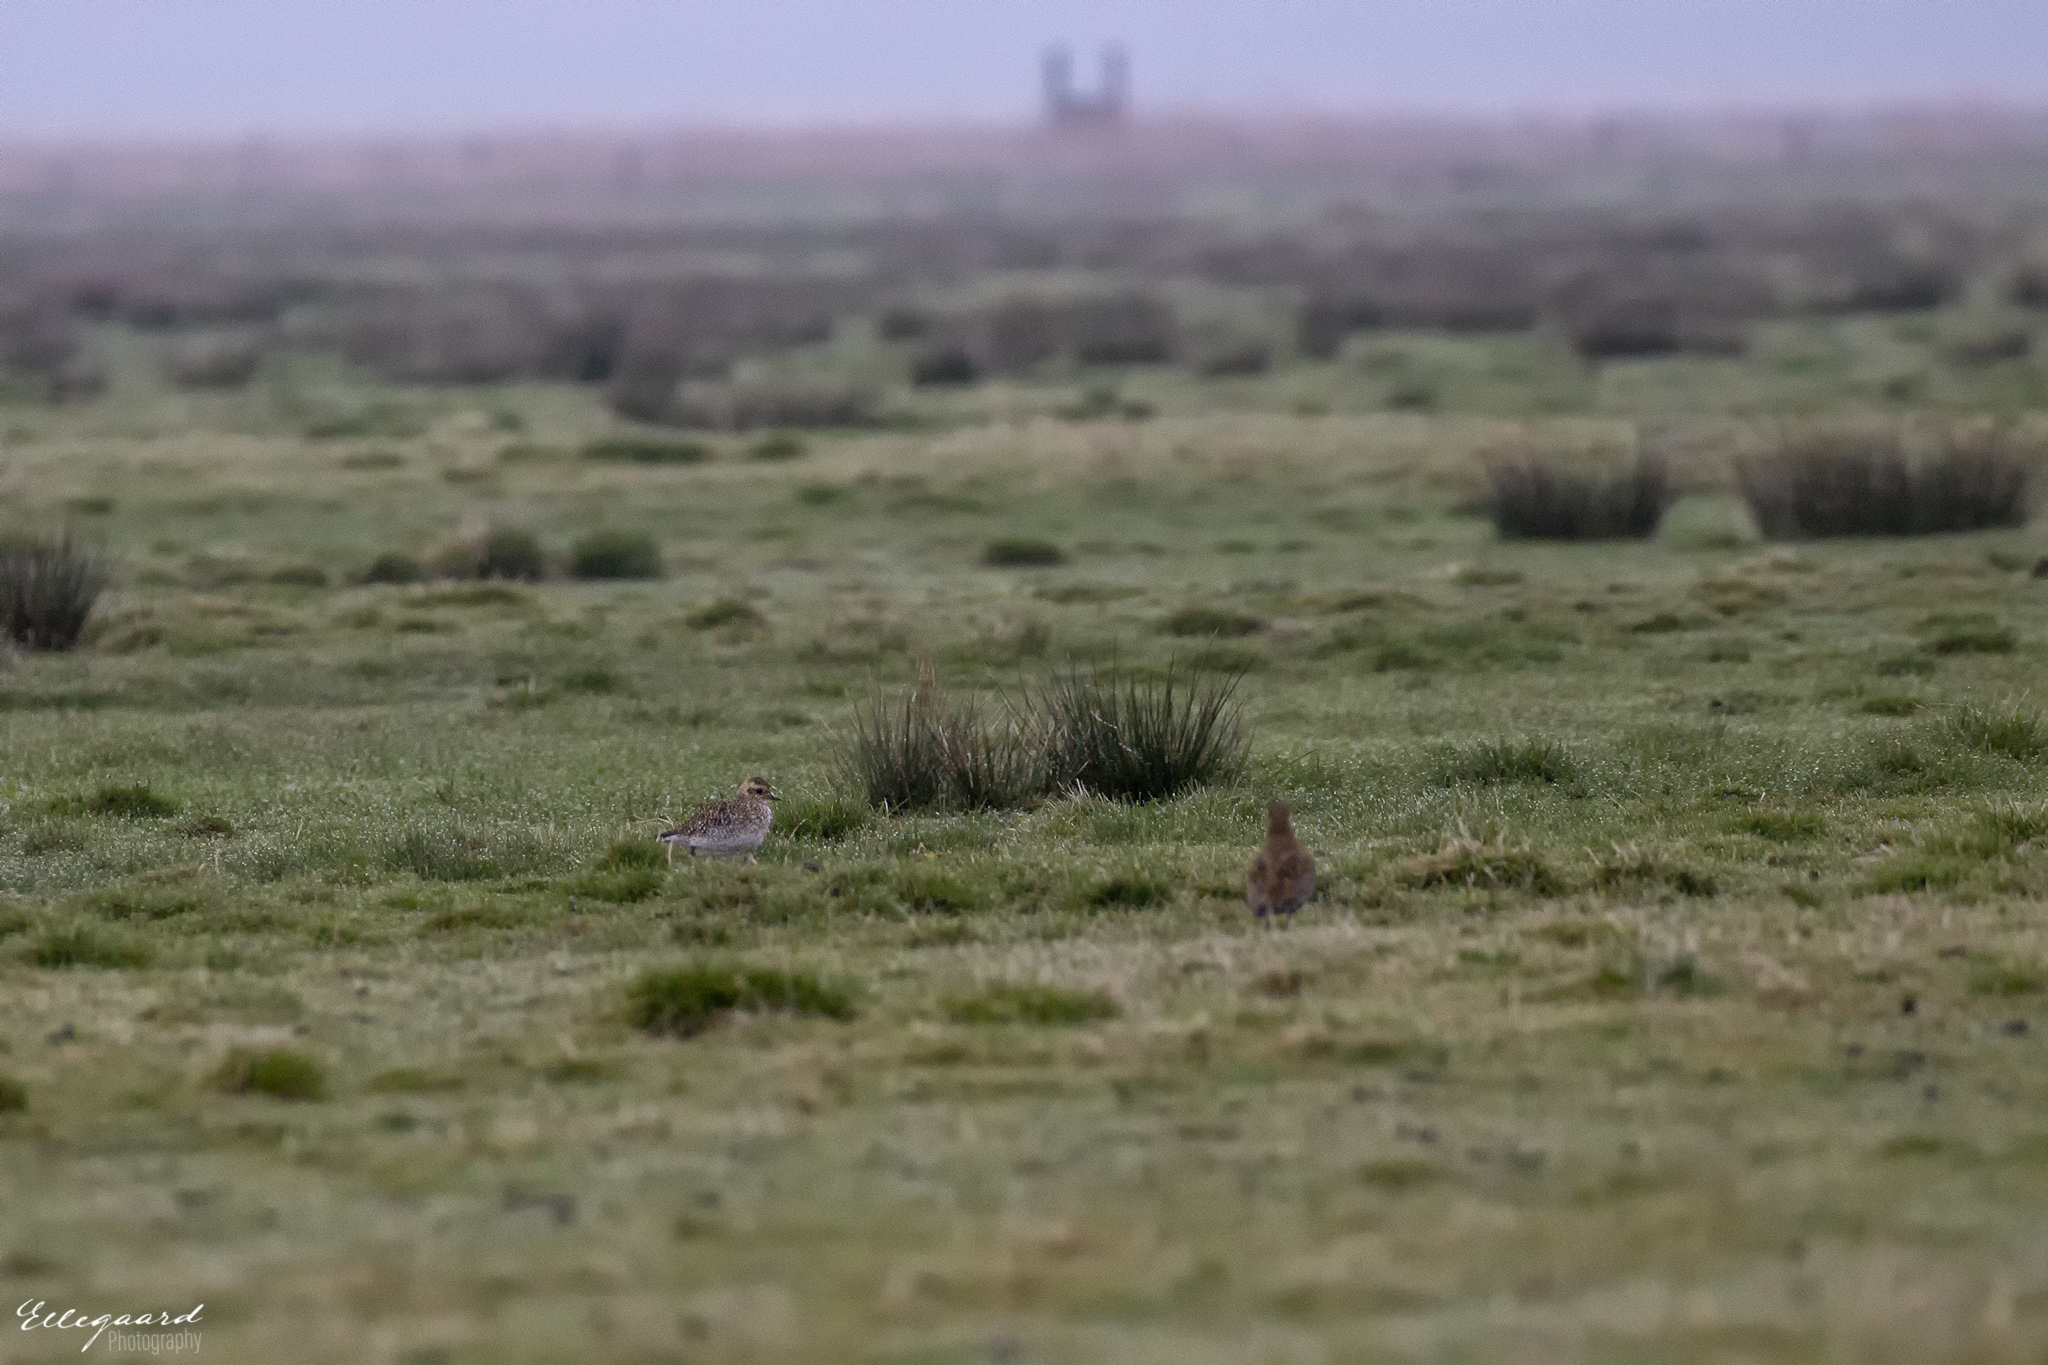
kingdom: Animalia
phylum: Chordata
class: Aves
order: Charadriiformes
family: Charadriidae
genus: Charadrius
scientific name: Charadrius morinellus
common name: Eurasian dotterel
